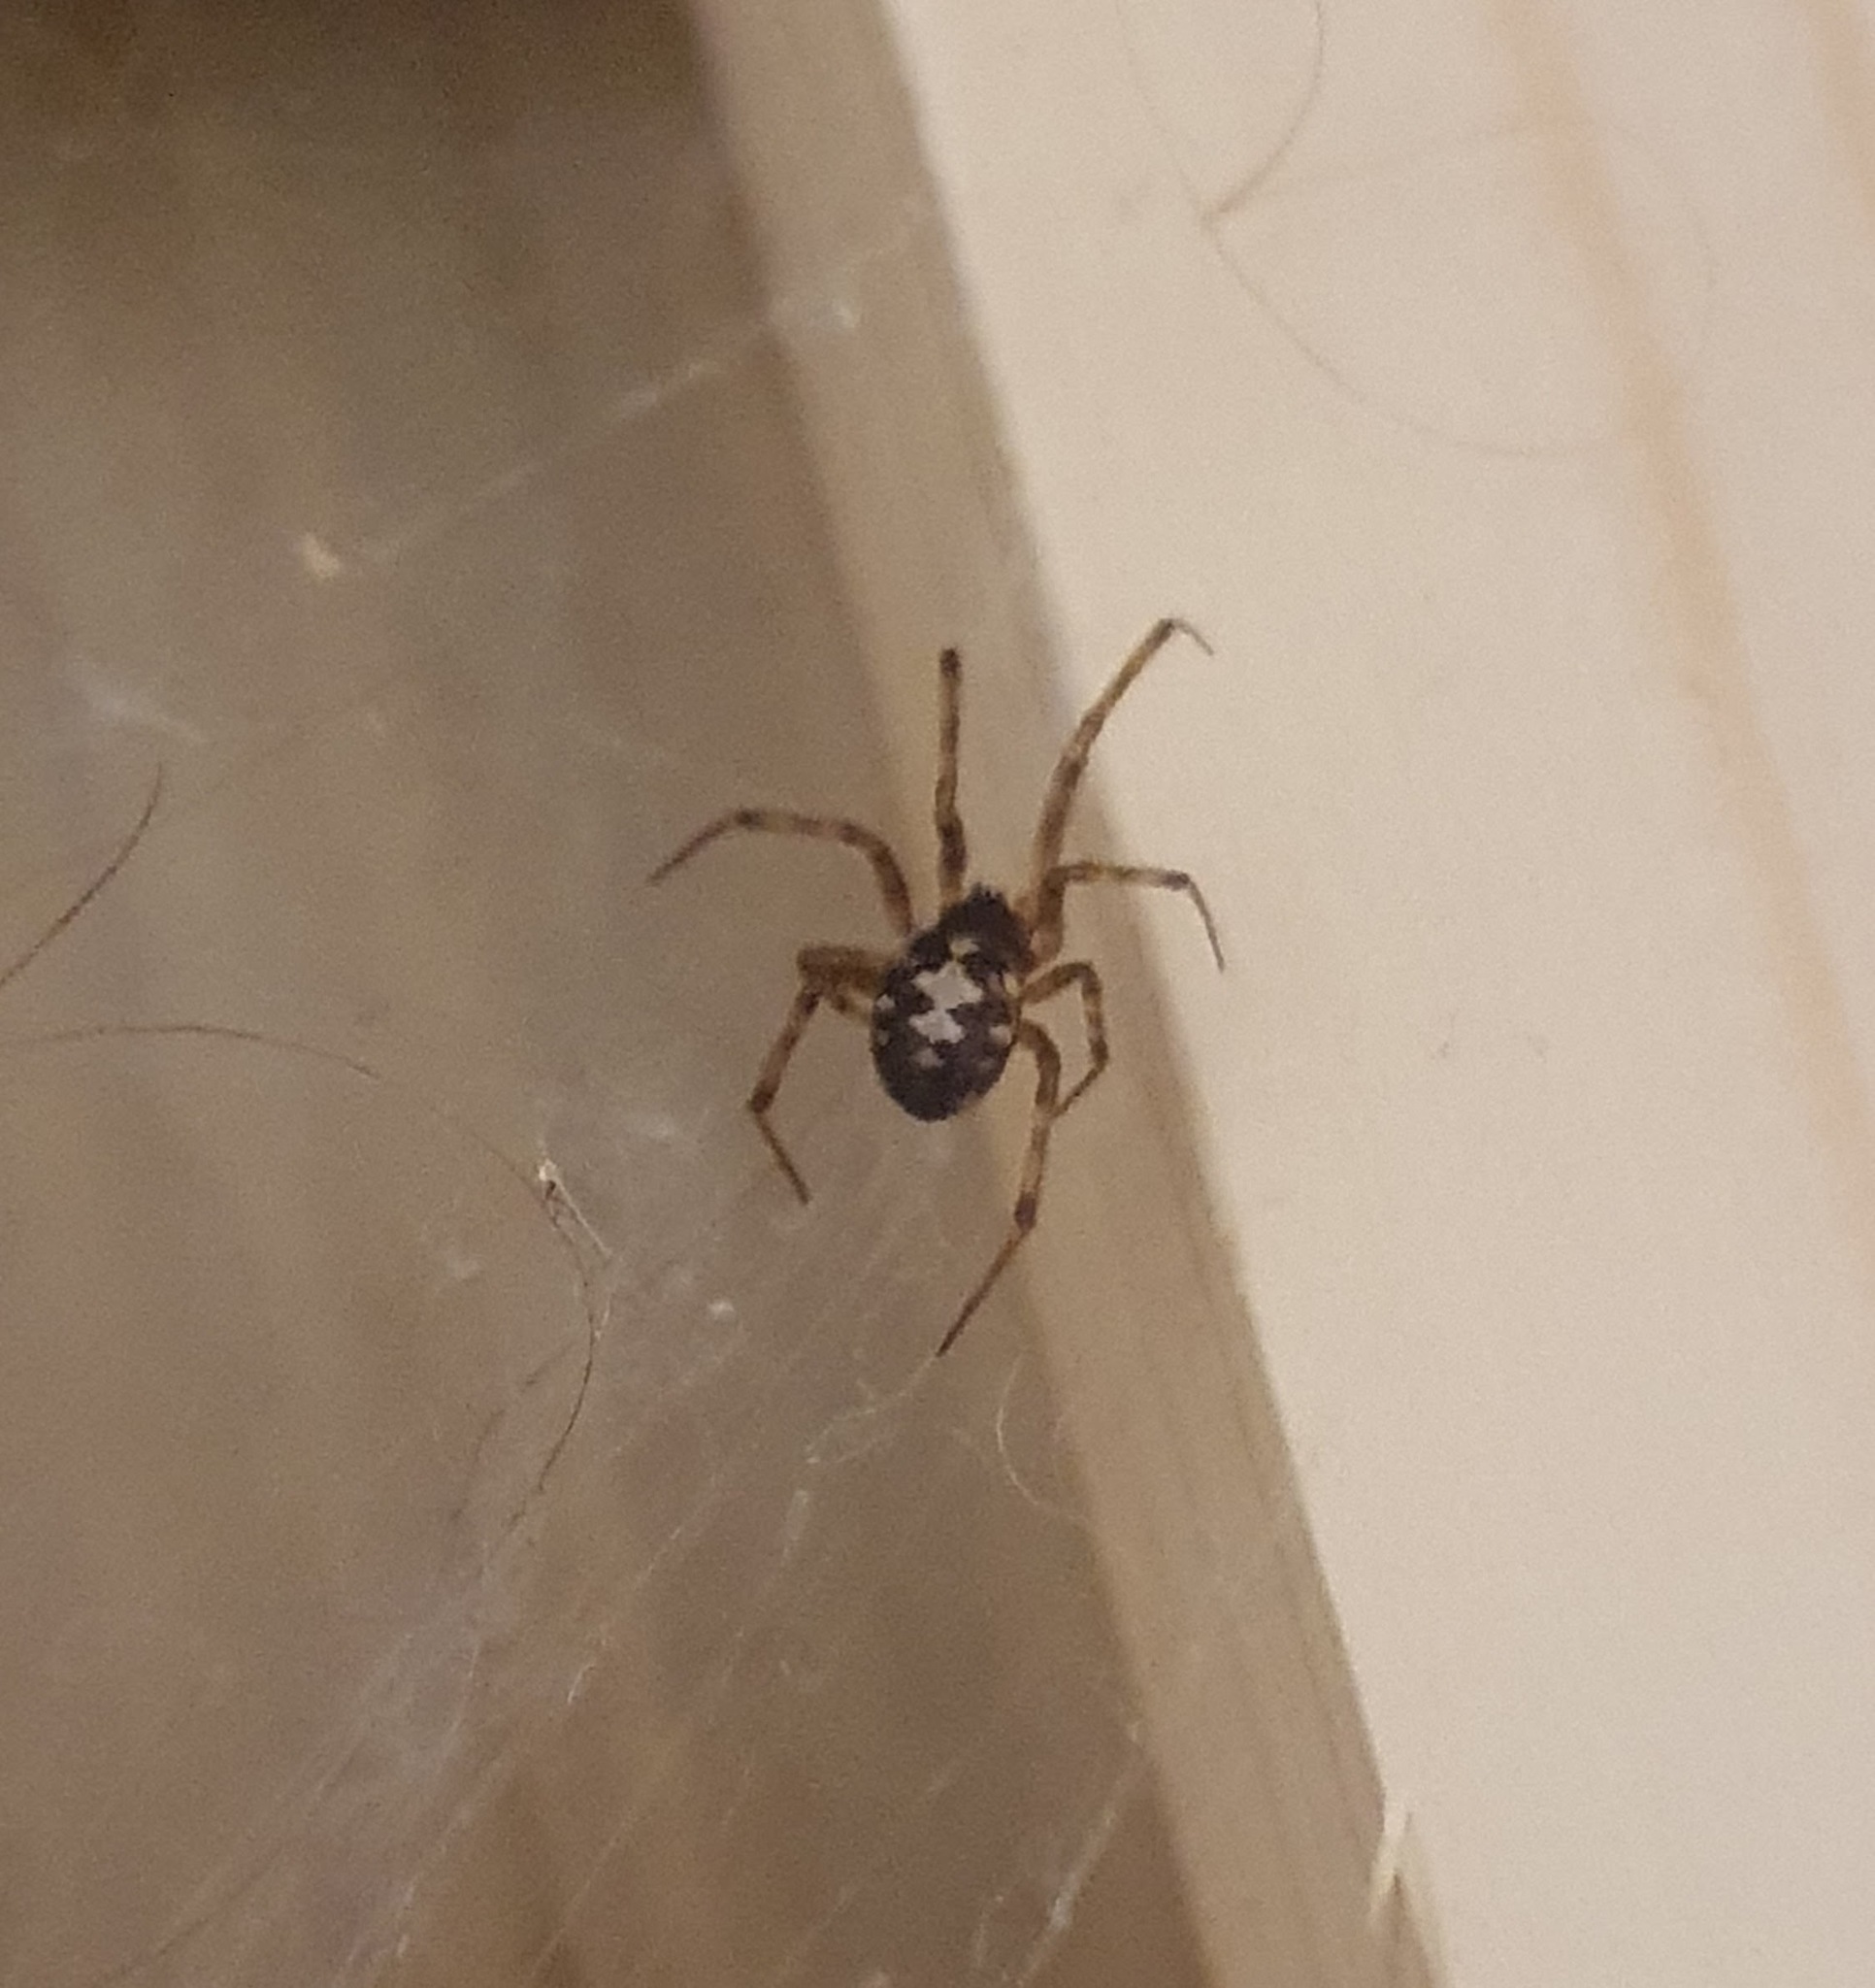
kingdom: Animalia
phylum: Arthropoda
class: Arachnida
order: Araneae
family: Theridiidae
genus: Steatoda
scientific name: Steatoda triangulosa
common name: Triangulate bud spider
